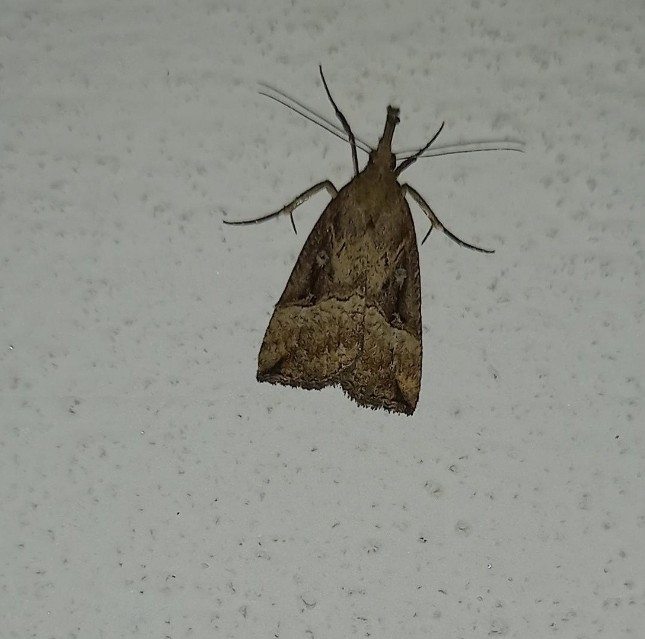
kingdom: Animalia
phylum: Arthropoda
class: Insecta
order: Lepidoptera
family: Erebidae
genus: Hypena
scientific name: Hypena rostralis
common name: Buttoned snout
